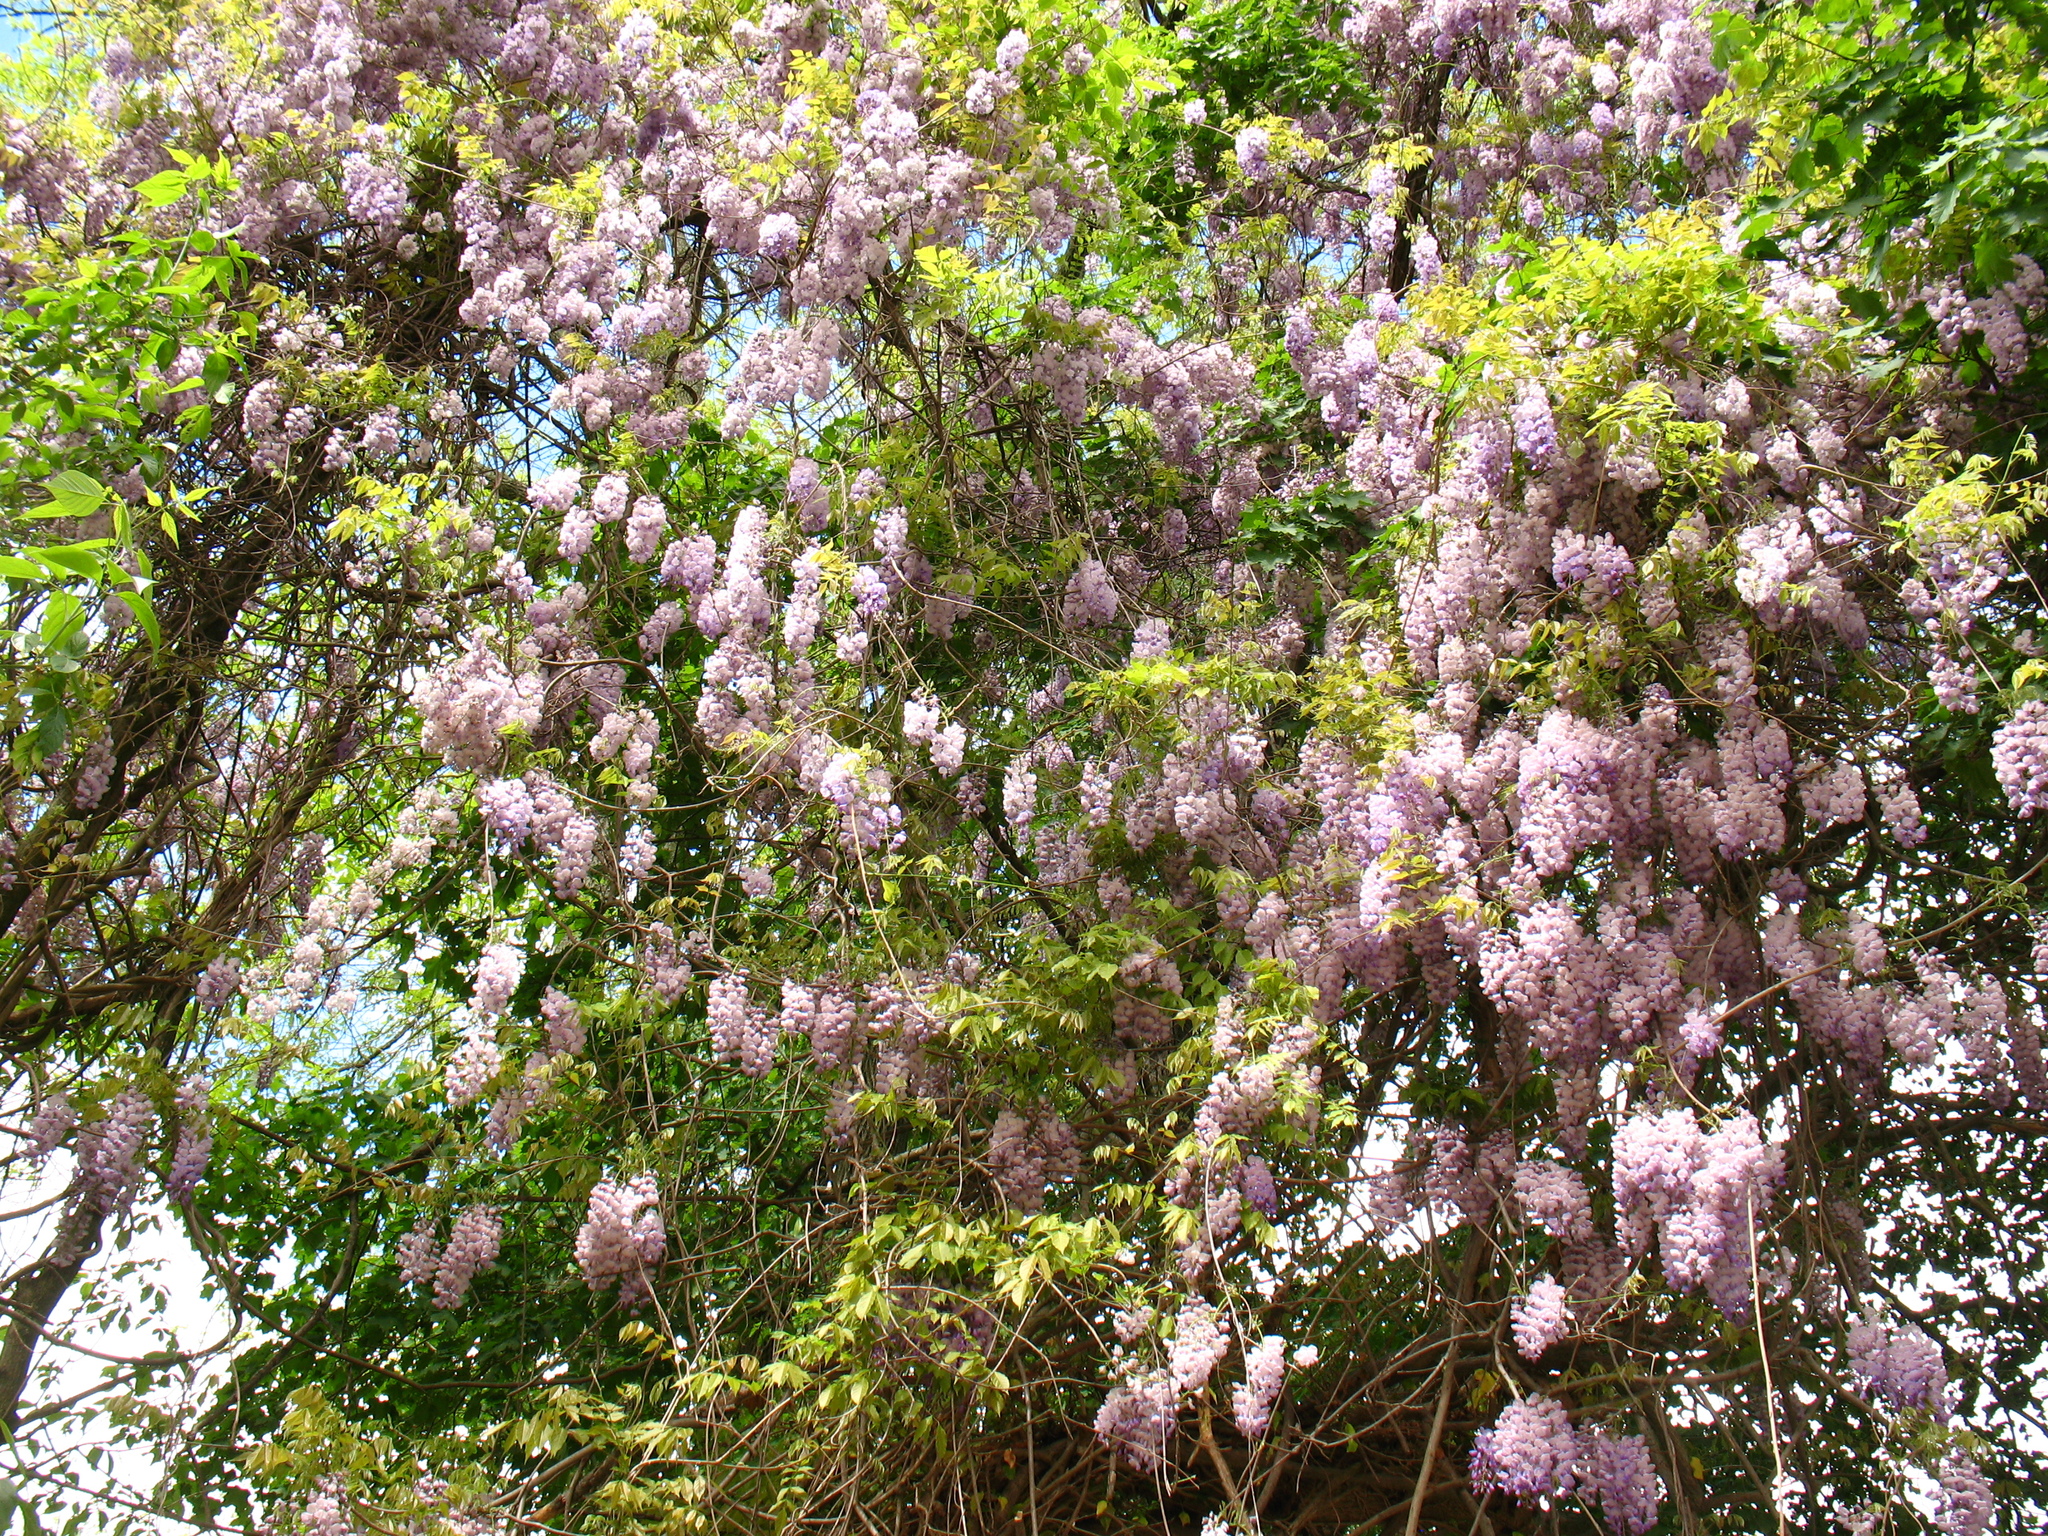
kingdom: Plantae
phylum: Tracheophyta
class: Magnoliopsida
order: Fabales
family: Fabaceae
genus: Wisteria
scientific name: Wisteria sinensis
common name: Chinese wisteria
